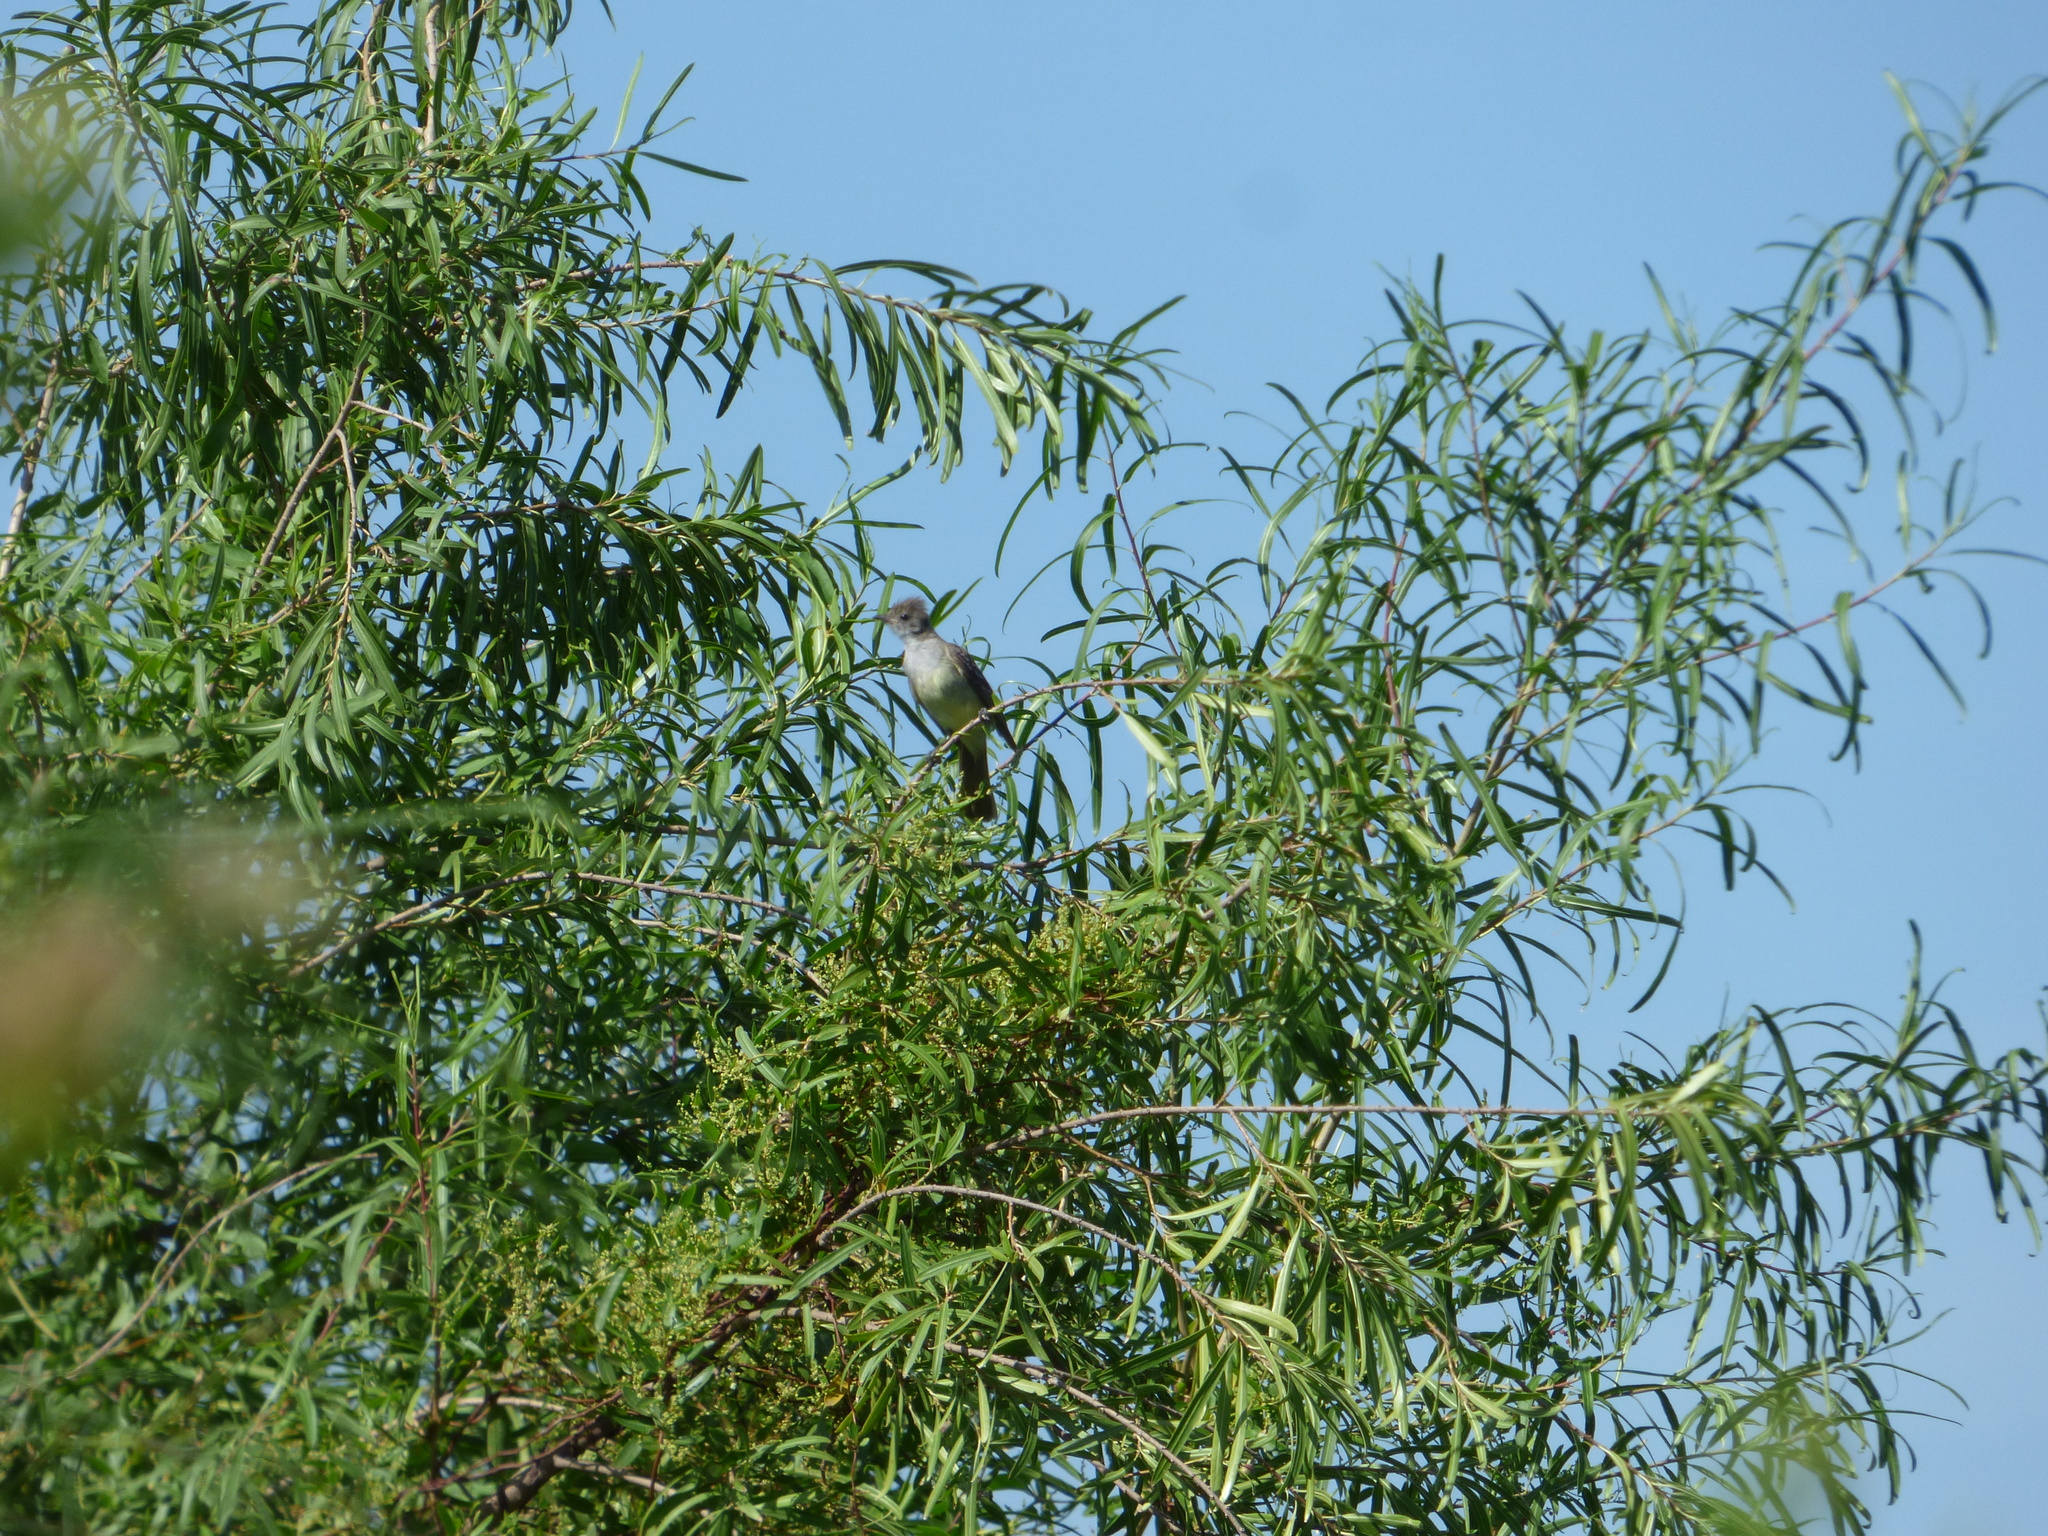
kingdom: Animalia
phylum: Chordata
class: Aves
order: Passeriformes
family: Tyrannidae
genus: Elaenia
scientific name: Elaenia spectabilis
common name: Large elaenia
